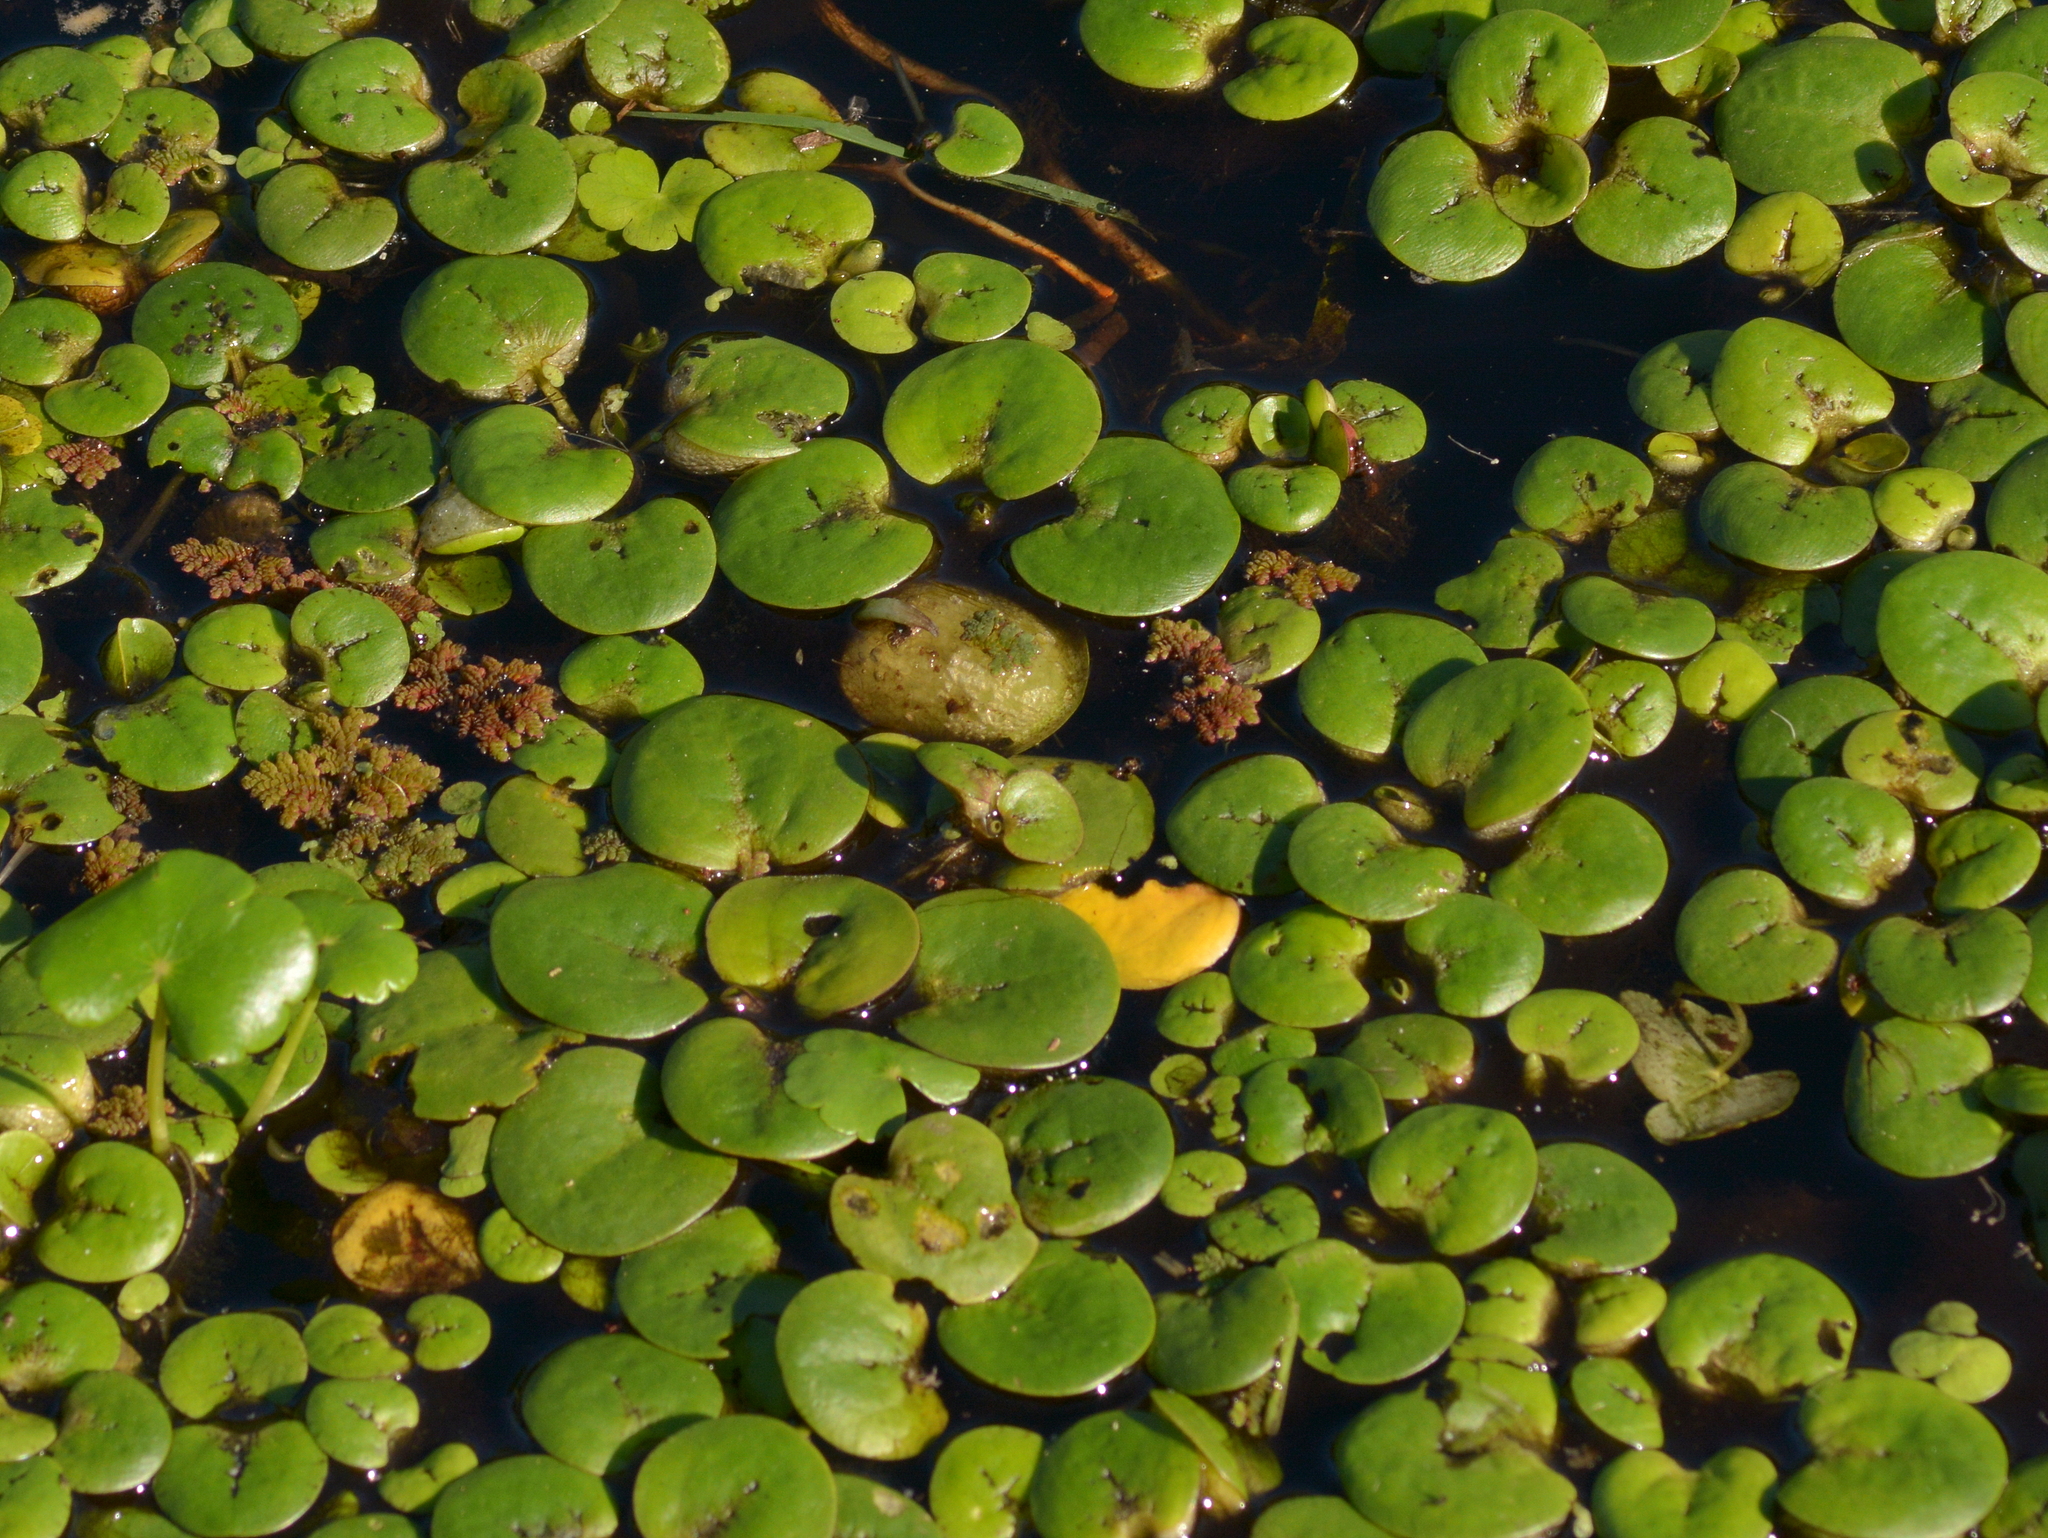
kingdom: Plantae
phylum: Tracheophyta
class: Liliopsida
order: Alismatales
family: Hydrocharitaceae
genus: Hydrocharis
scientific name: Hydrocharis laevigata
